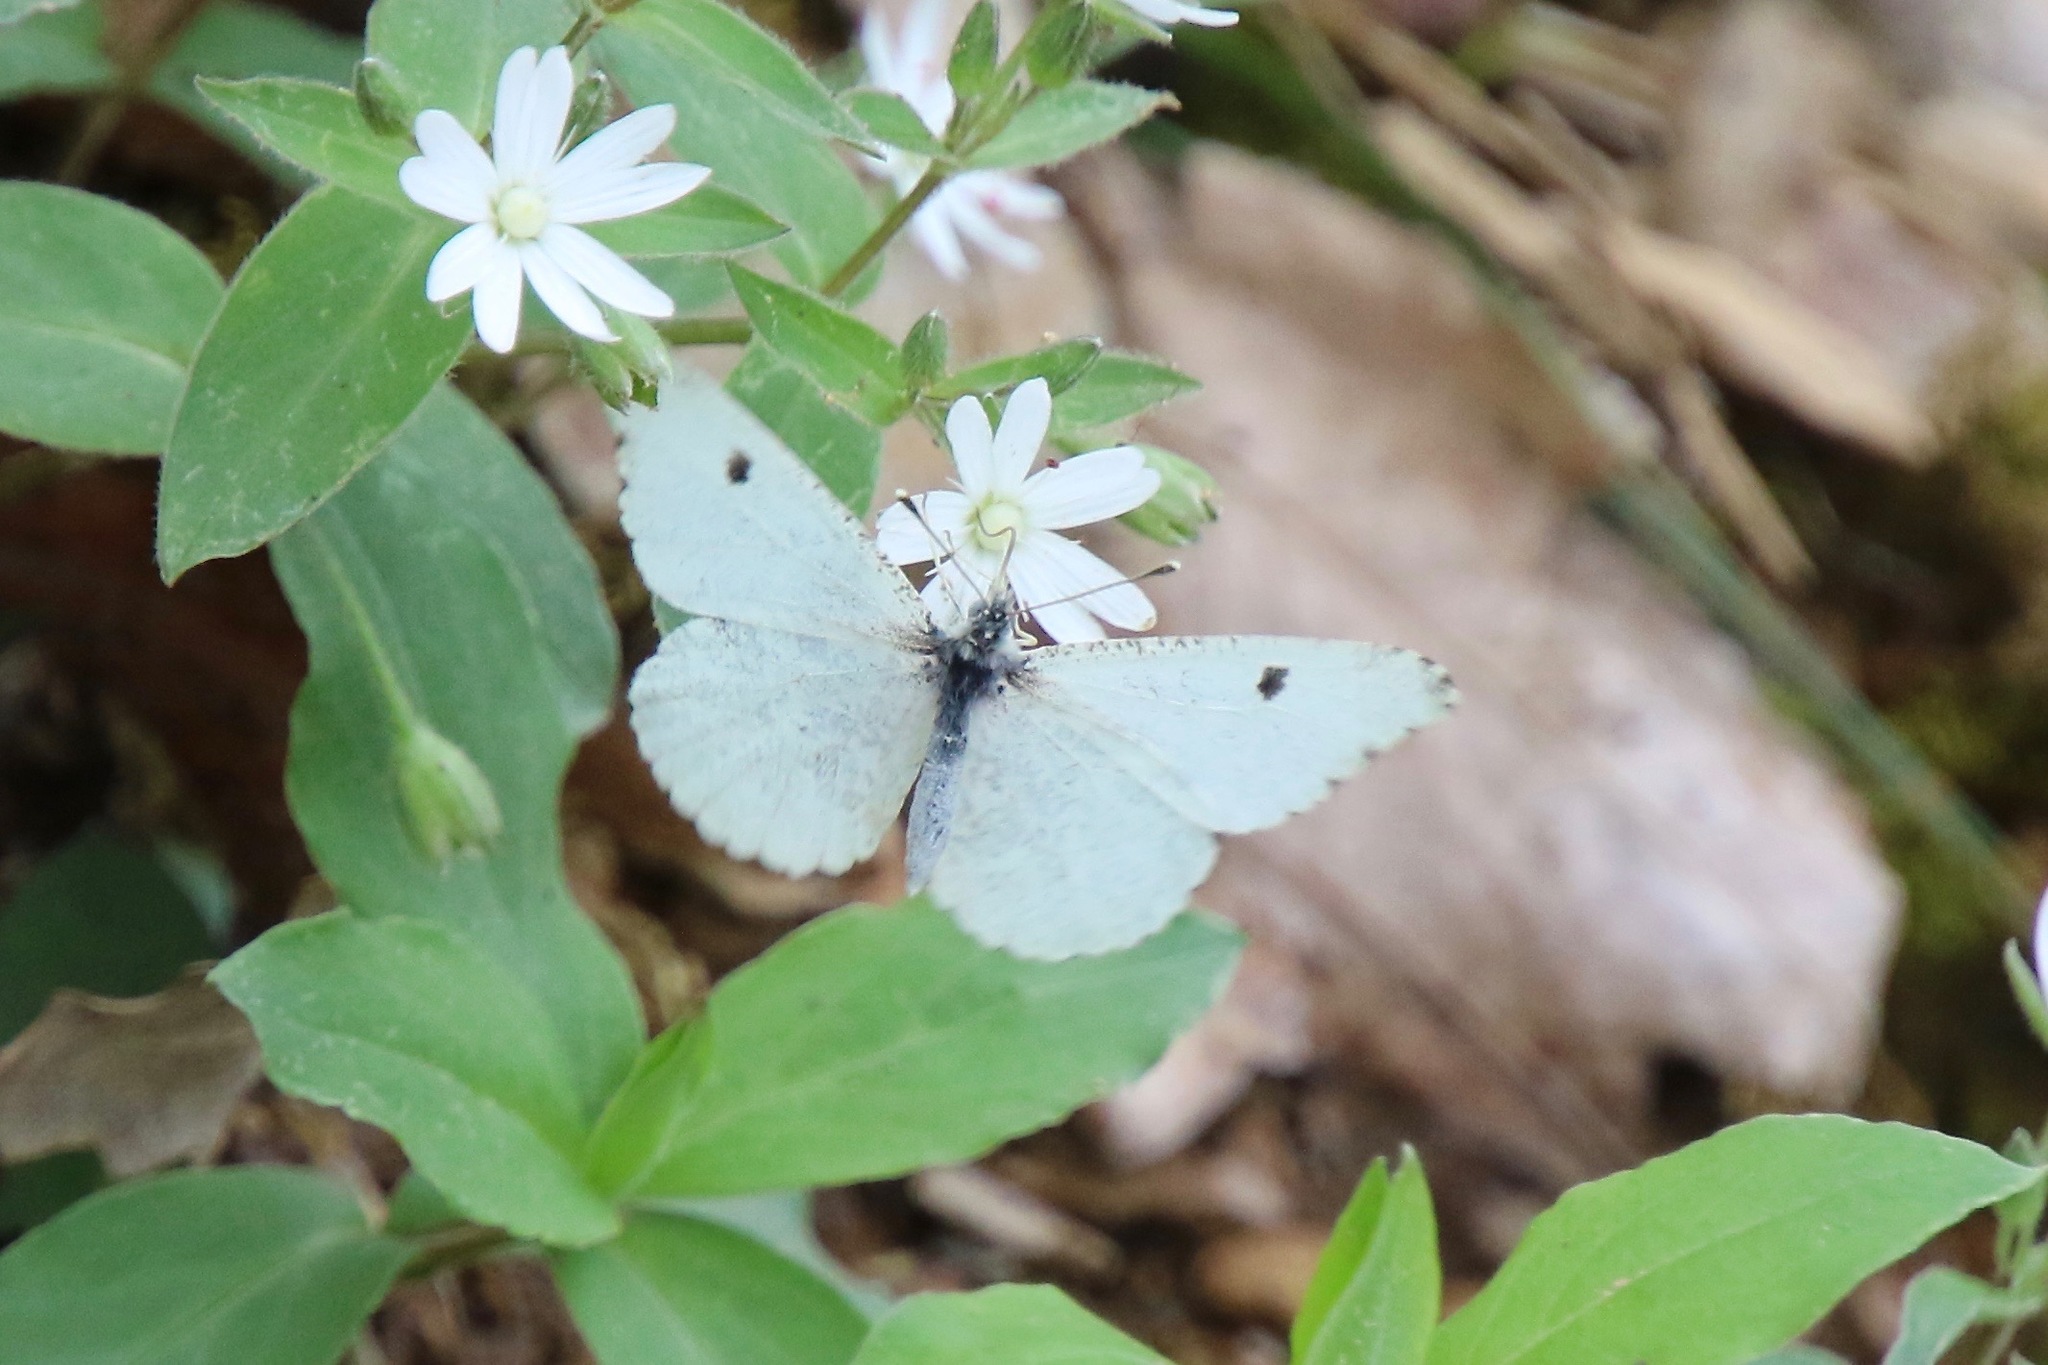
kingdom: Animalia
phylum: Arthropoda
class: Insecta
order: Lepidoptera
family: Pieridae
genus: Anthocharis
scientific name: Anthocharis midea
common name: Falcate orangetip
